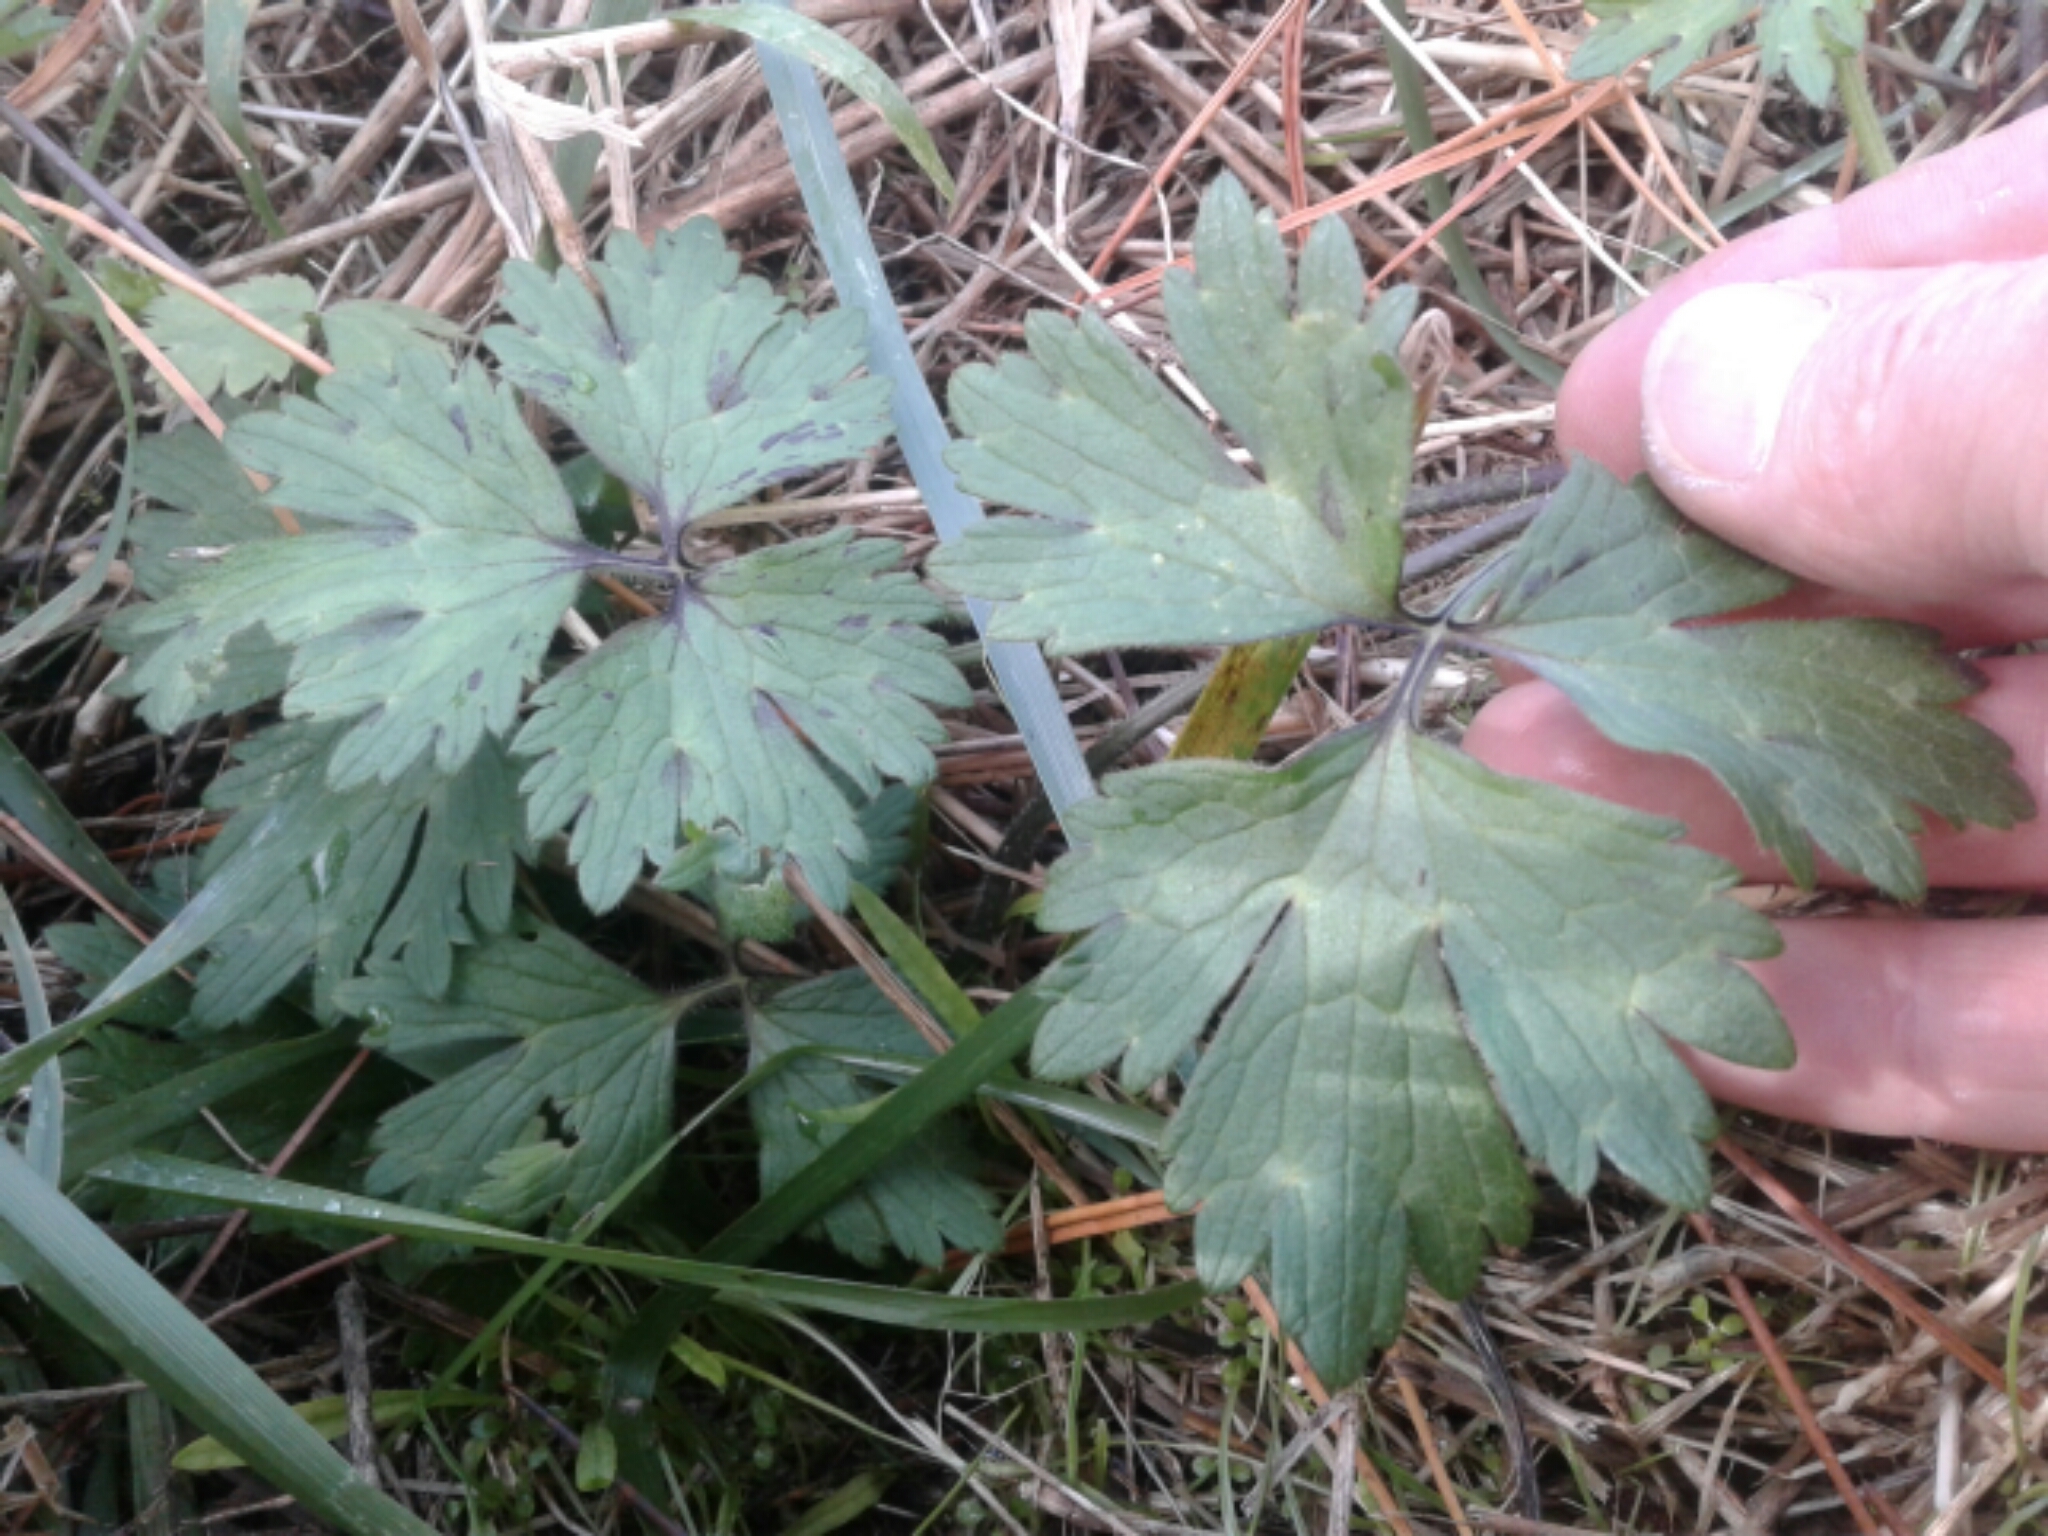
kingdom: Plantae
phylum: Tracheophyta
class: Magnoliopsida
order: Ranunculales
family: Ranunculaceae
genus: Ranunculus
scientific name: Ranunculus repens
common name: Creeping buttercup
